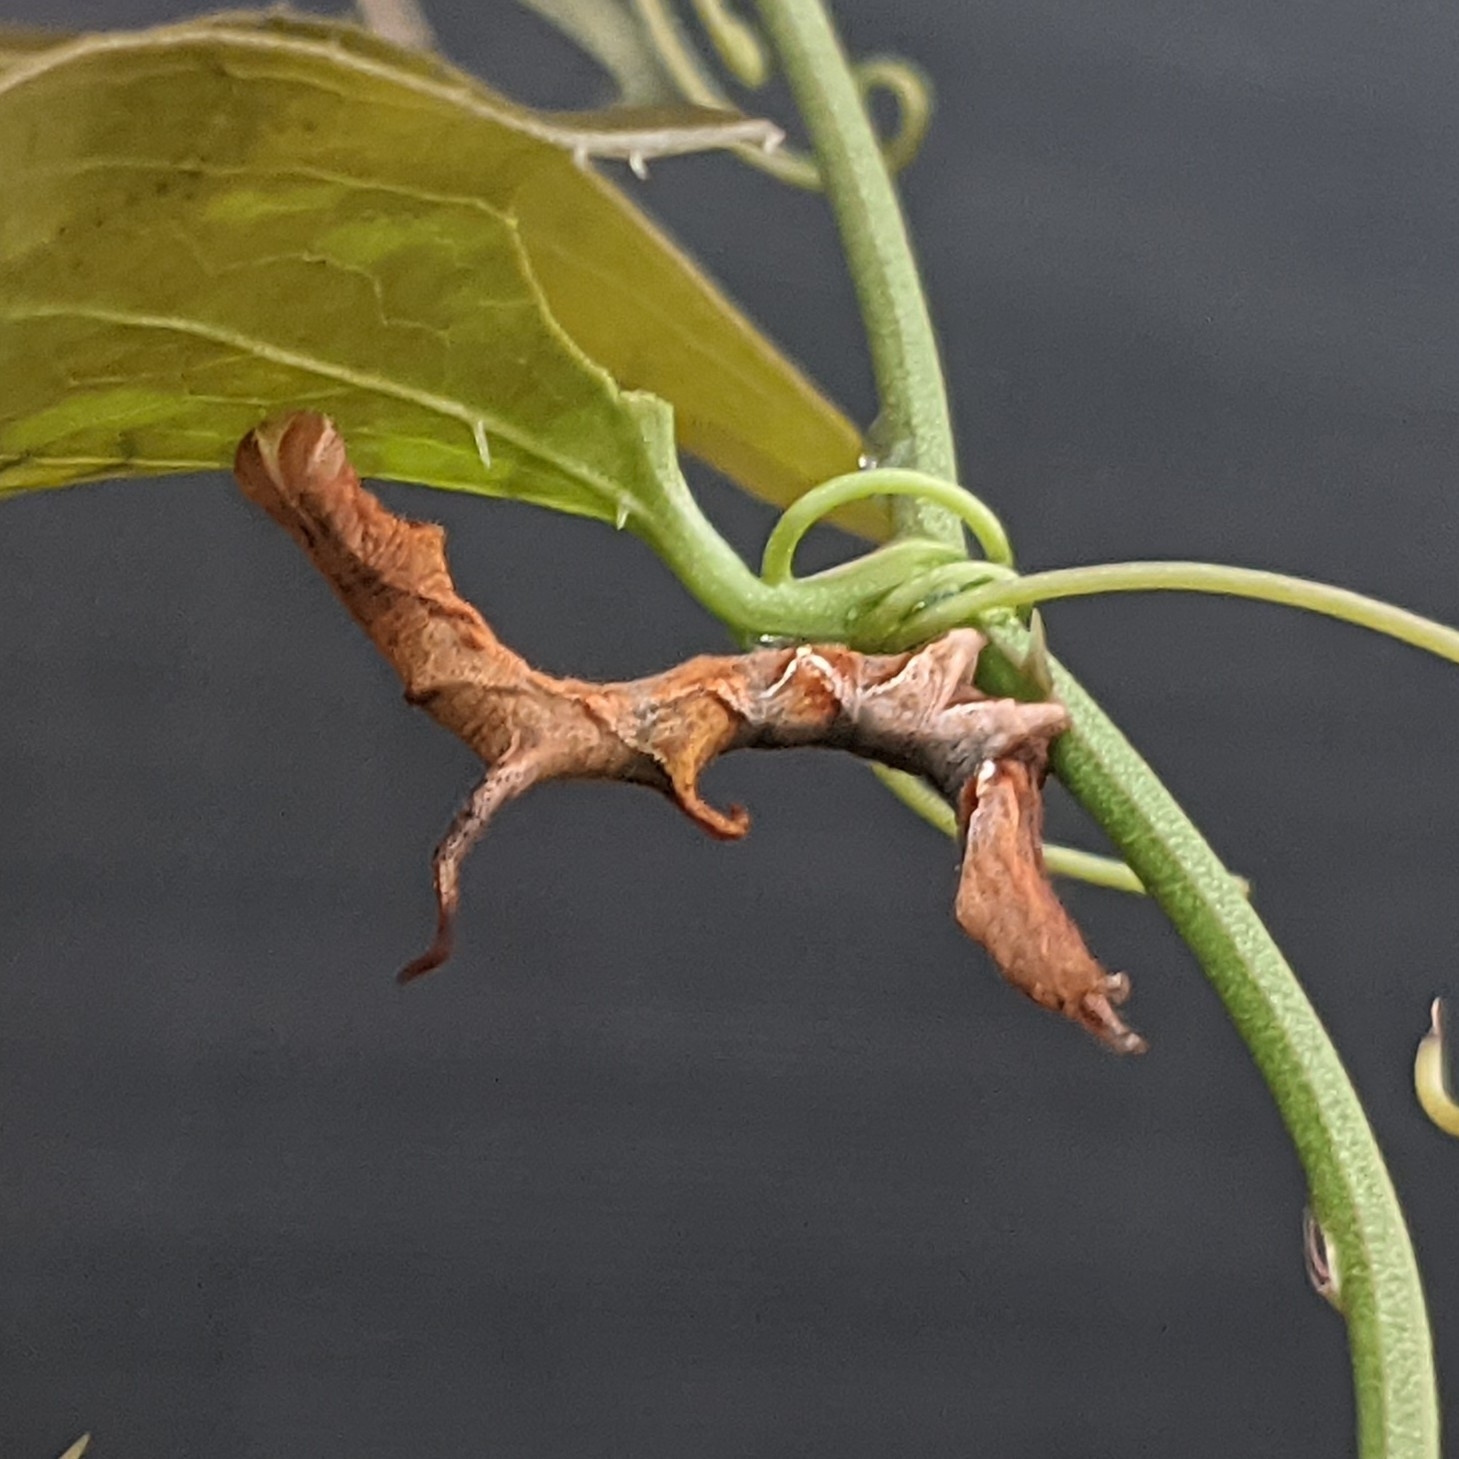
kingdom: Animalia
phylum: Arthropoda
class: Insecta
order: Lepidoptera
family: Erebidae
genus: Phyprosopus
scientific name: Phyprosopus callitrichoides
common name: Curved-lined owlet
